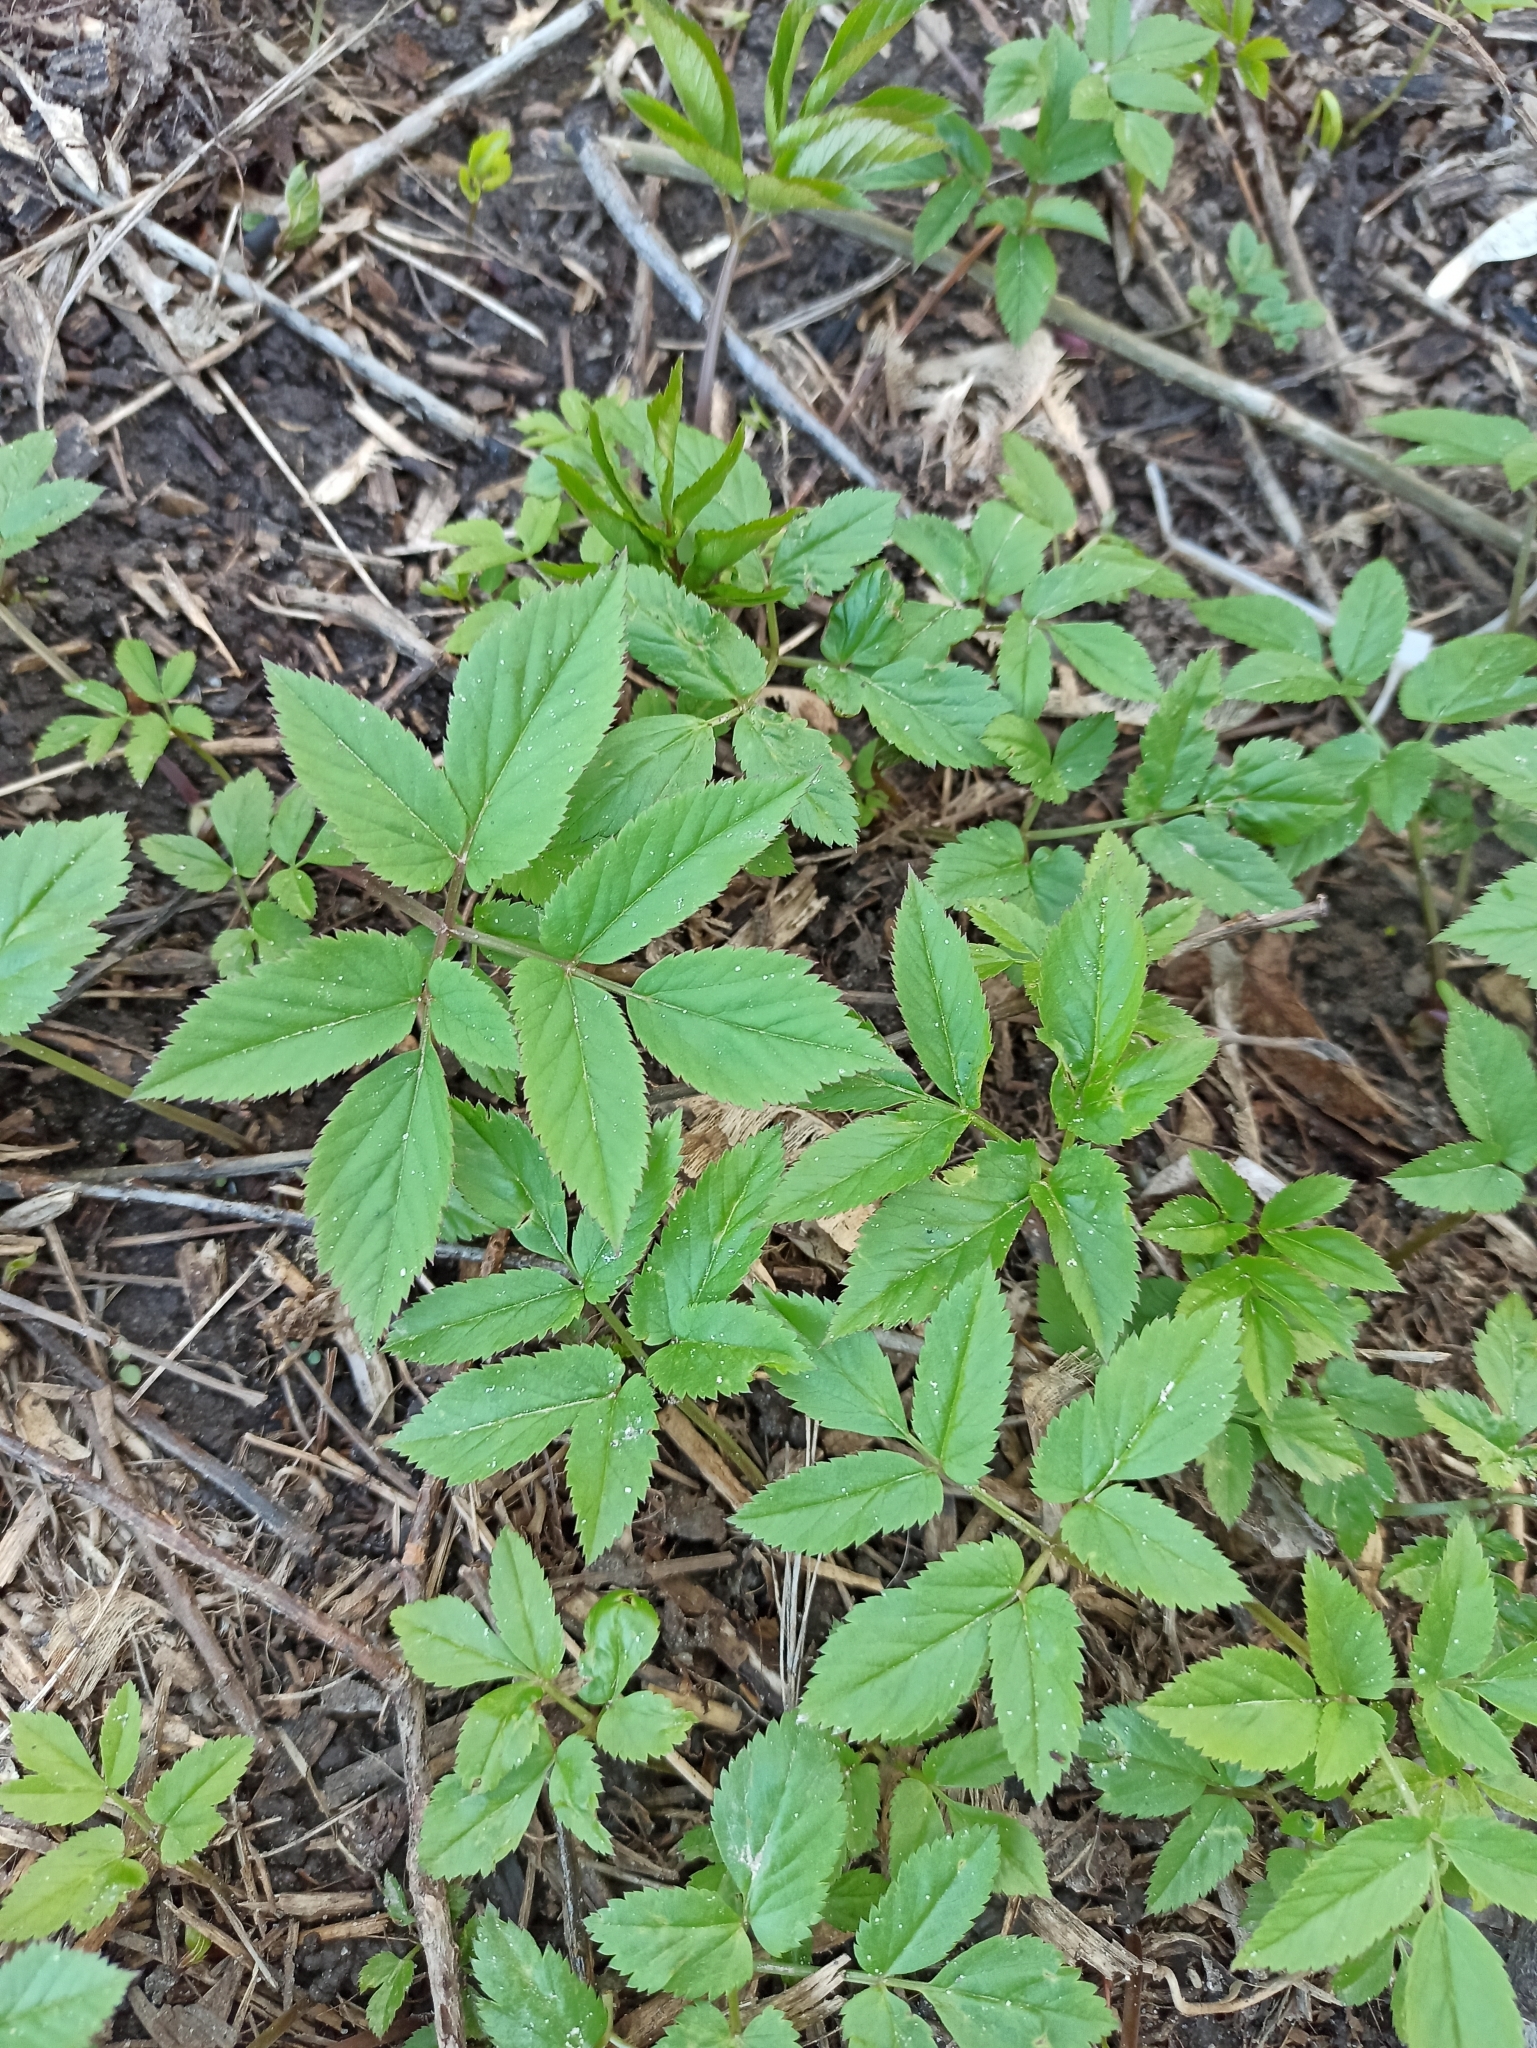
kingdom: Plantae
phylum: Tracheophyta
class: Magnoliopsida
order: Apiales
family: Apiaceae
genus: Aegopodium
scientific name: Aegopodium podagraria
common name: Ground-elder
